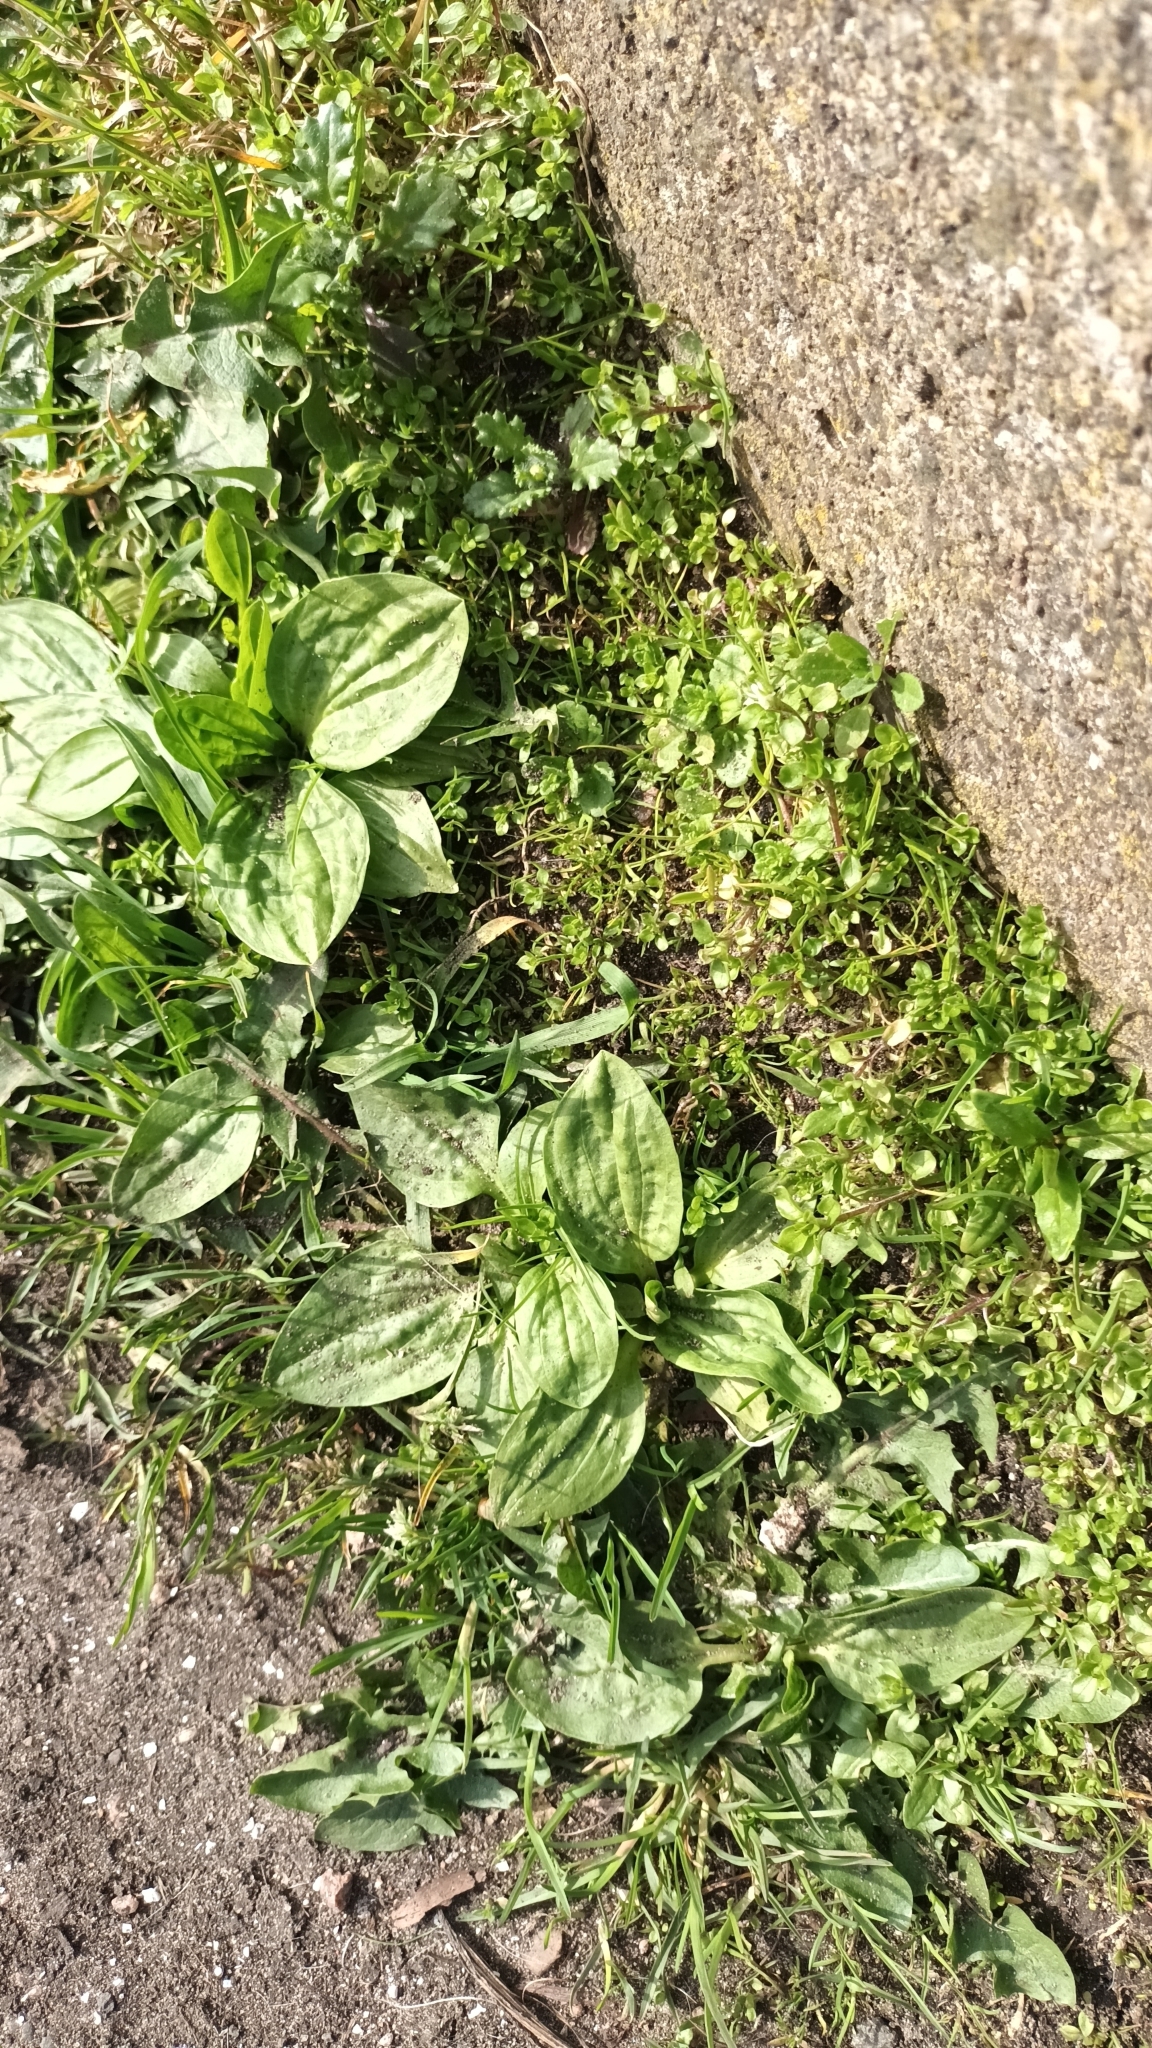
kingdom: Plantae
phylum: Tracheophyta
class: Magnoliopsida
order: Lamiales
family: Plantaginaceae
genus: Plantago
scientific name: Plantago major
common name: Common plantain
